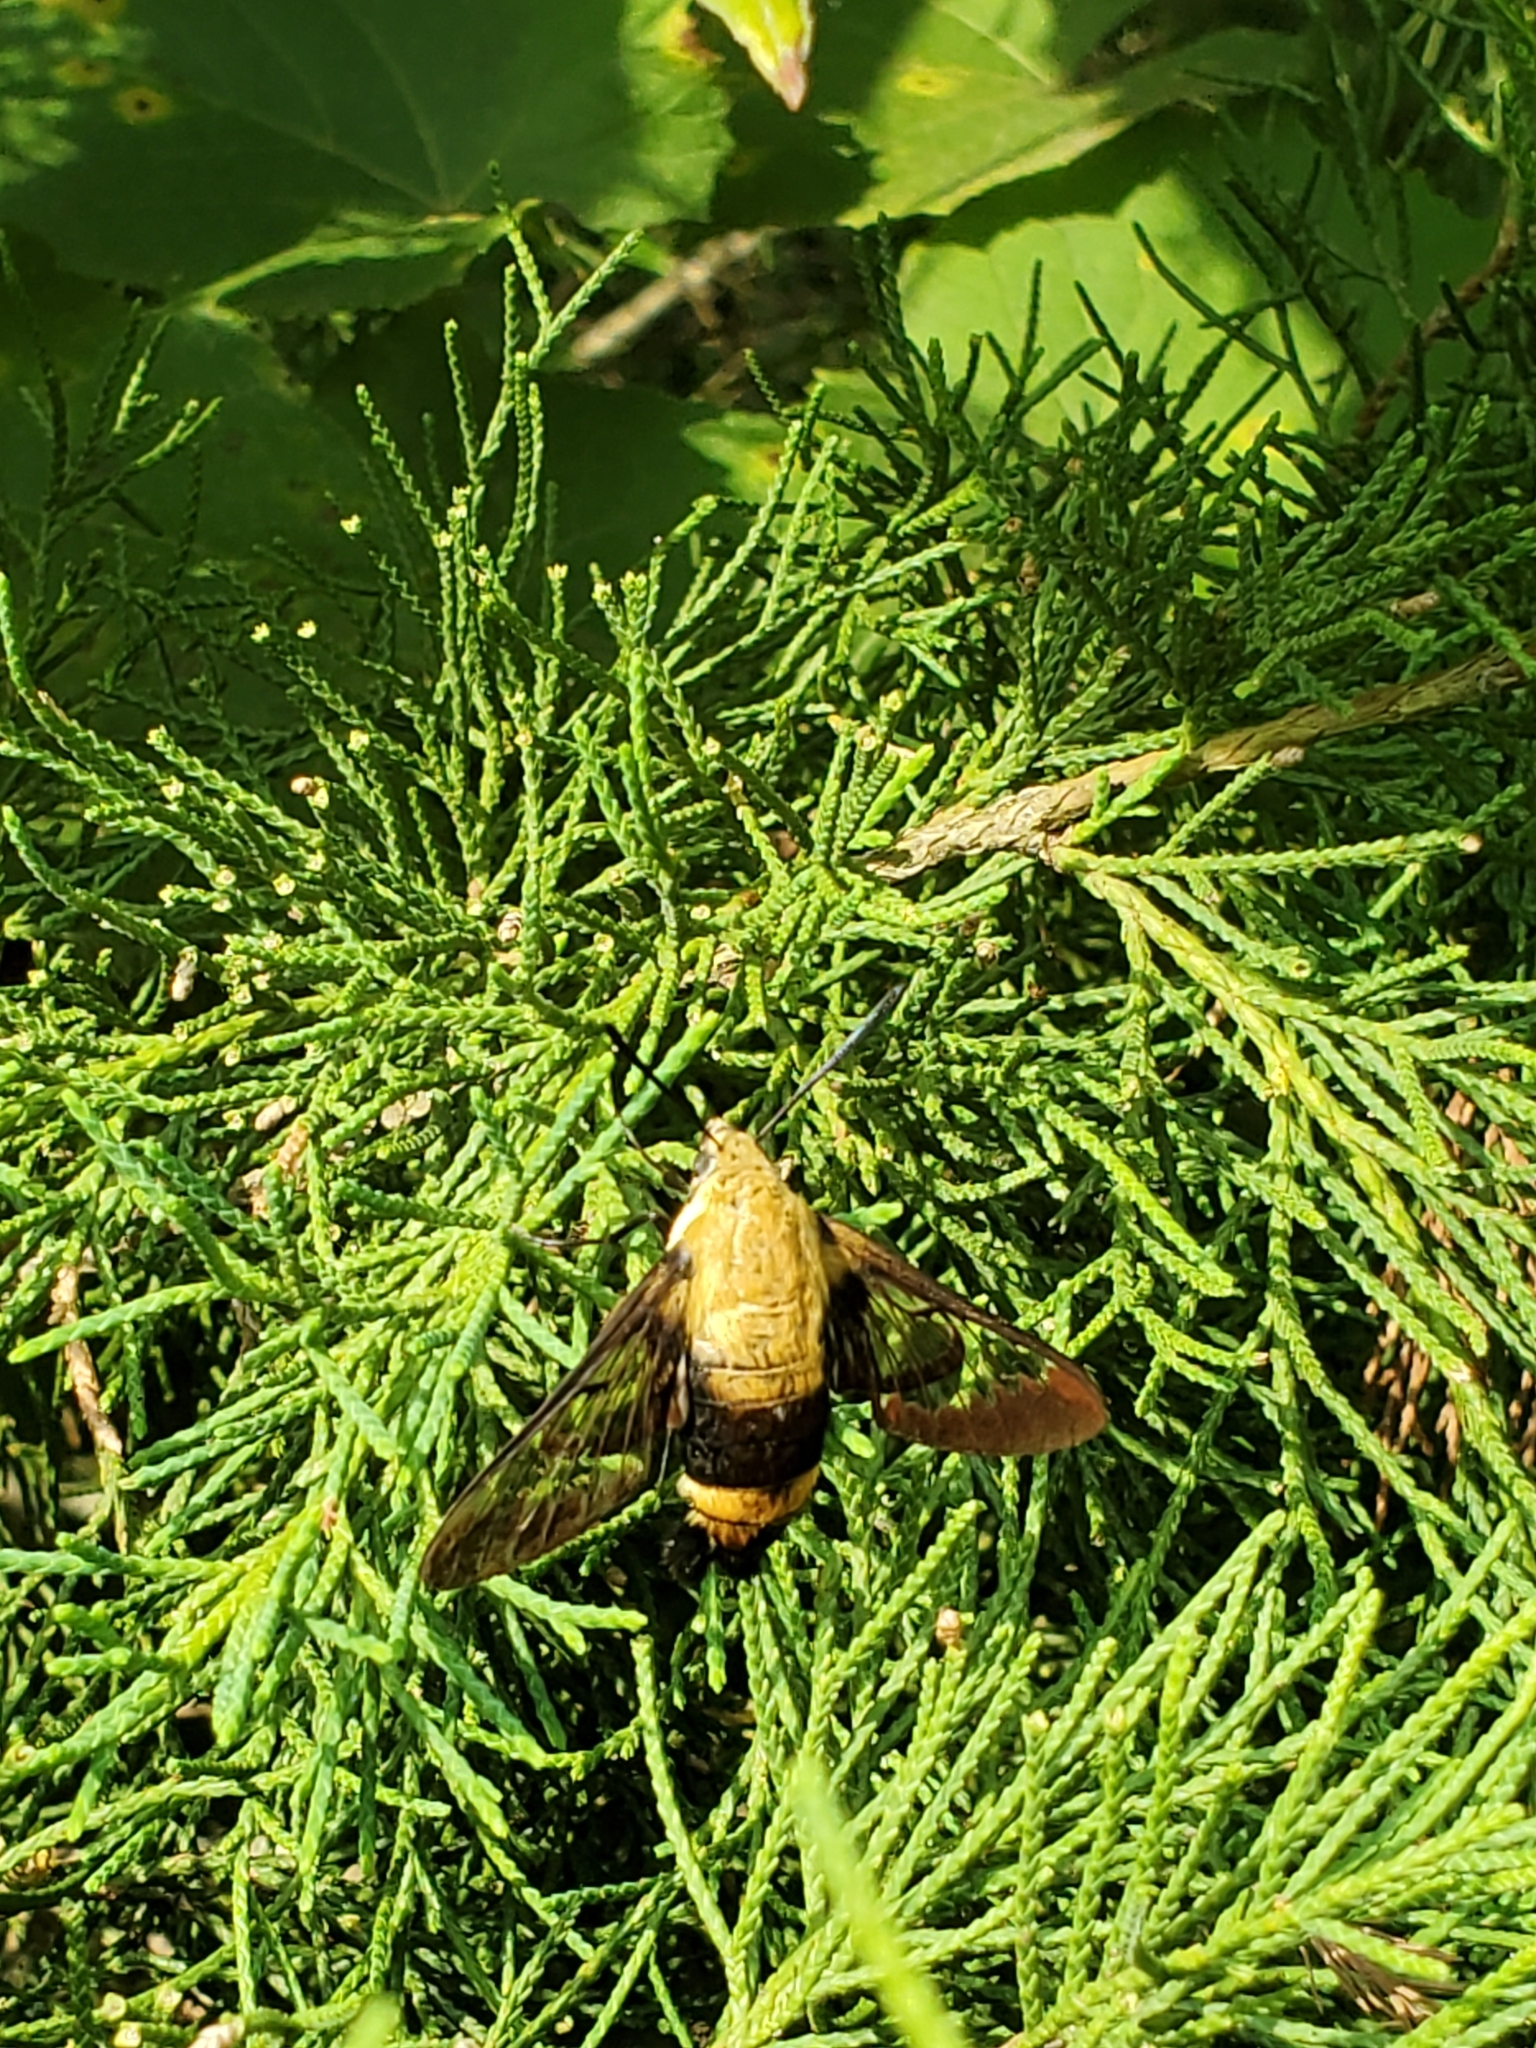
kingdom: Animalia
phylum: Arthropoda
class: Insecta
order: Lepidoptera
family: Sphingidae
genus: Hemaris
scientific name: Hemaris diffinis
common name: Bumblebee moth
